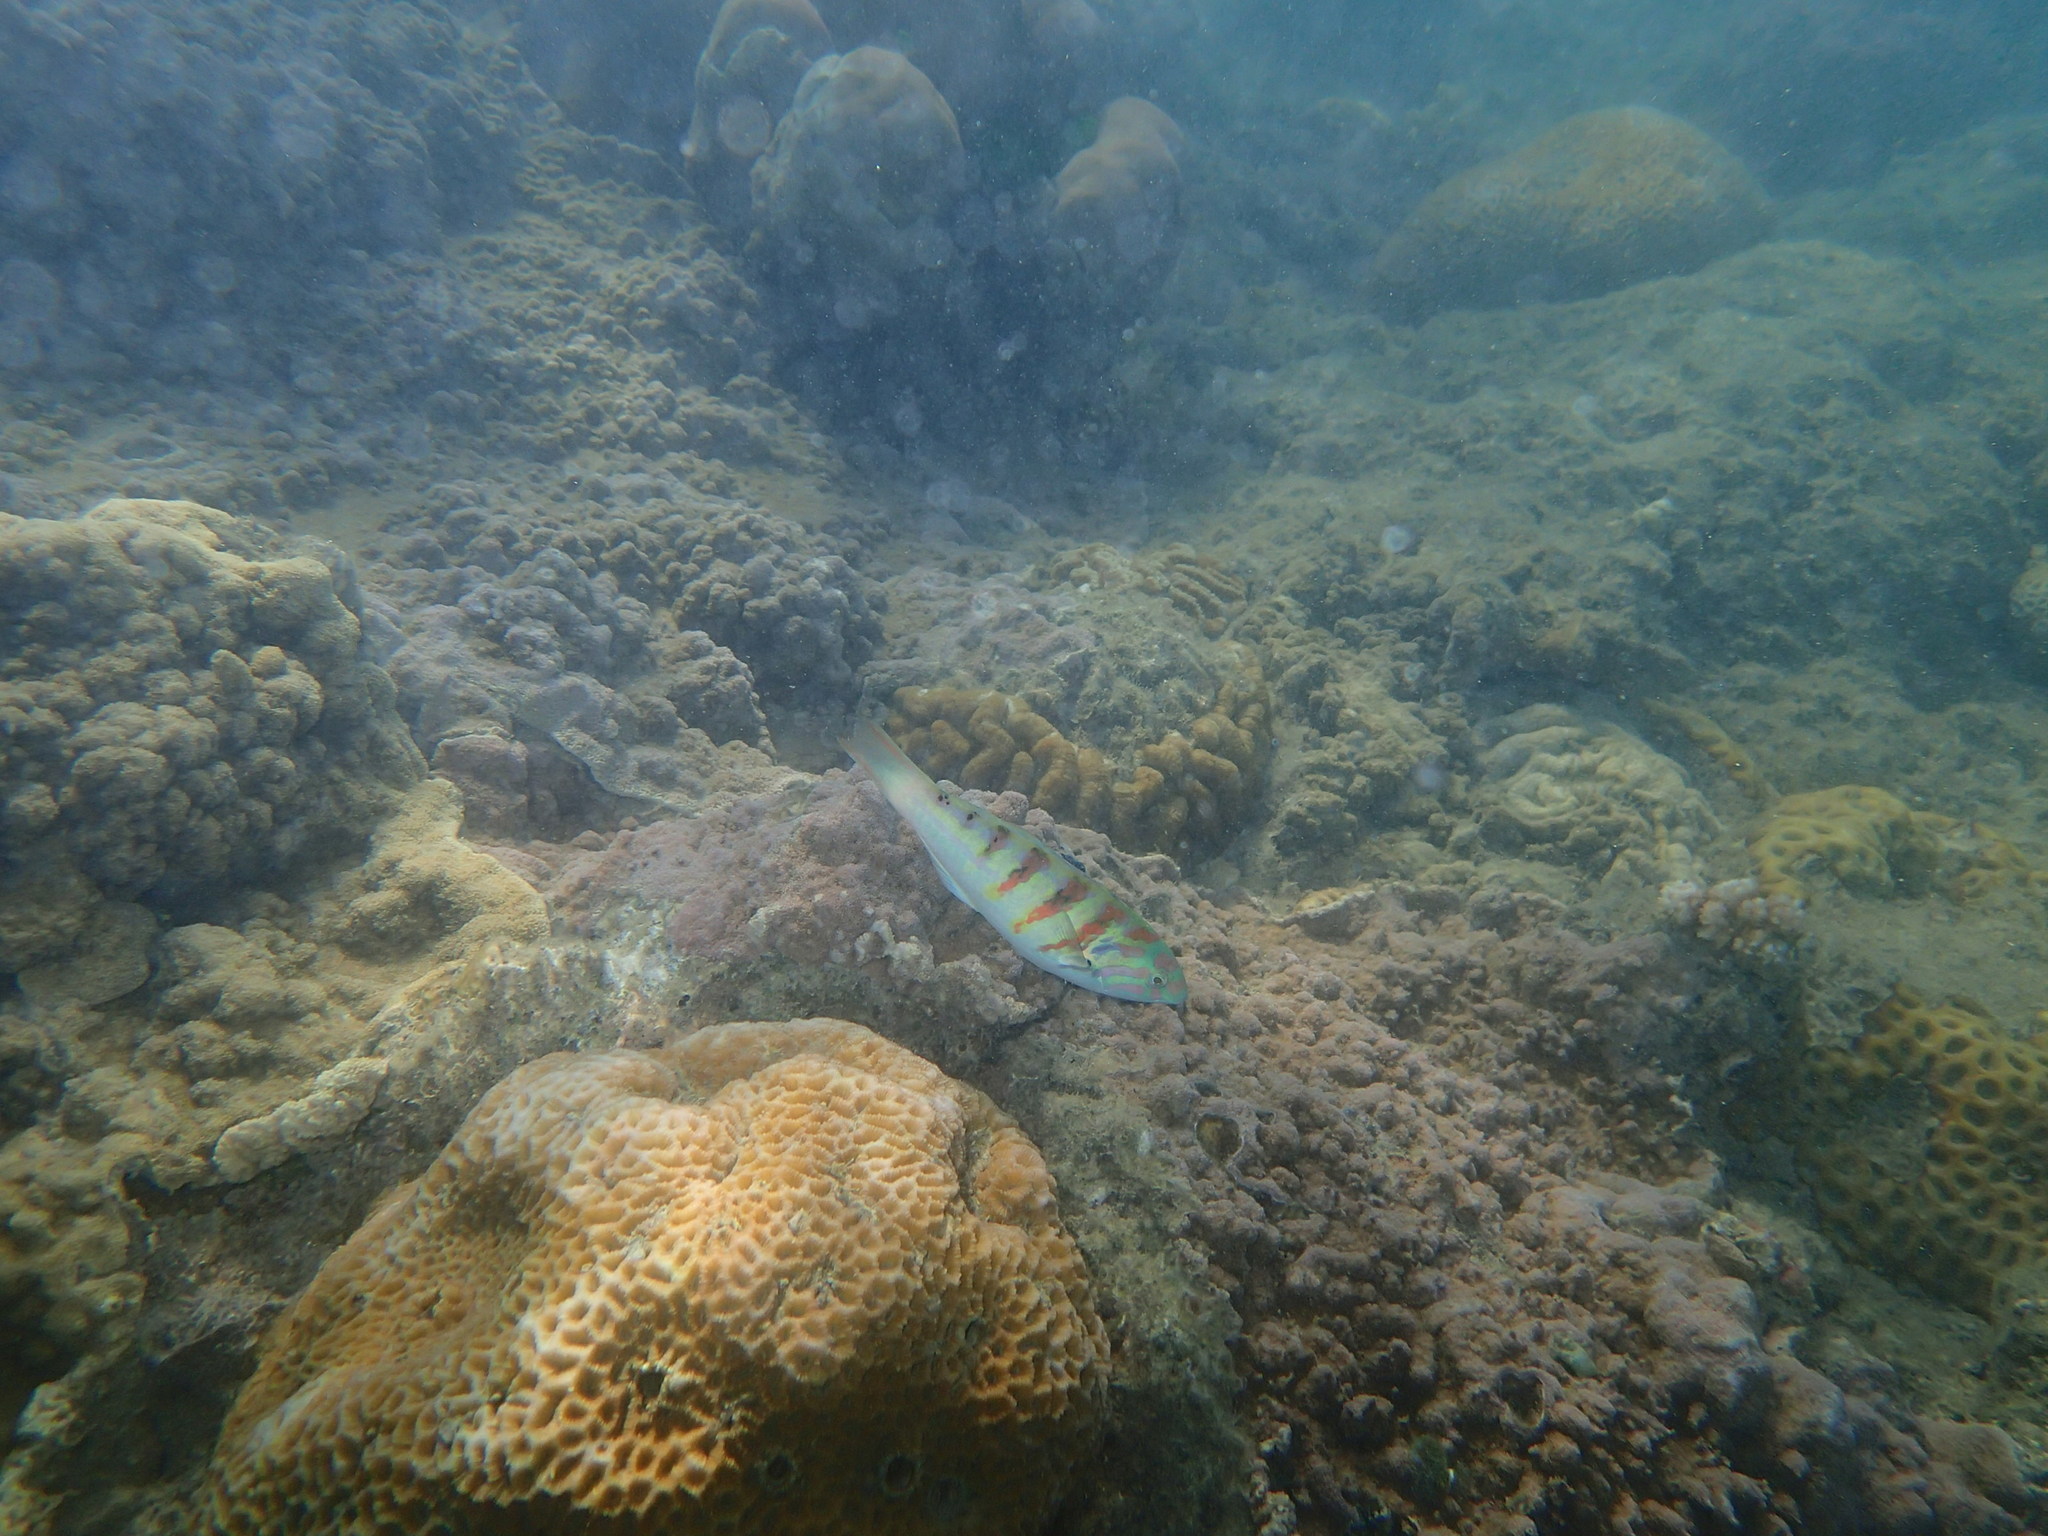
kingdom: Animalia
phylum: Chordata
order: Perciformes
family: Labridae
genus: Thalassoma
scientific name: Thalassoma hardwicke
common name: Sixbar wrasse
